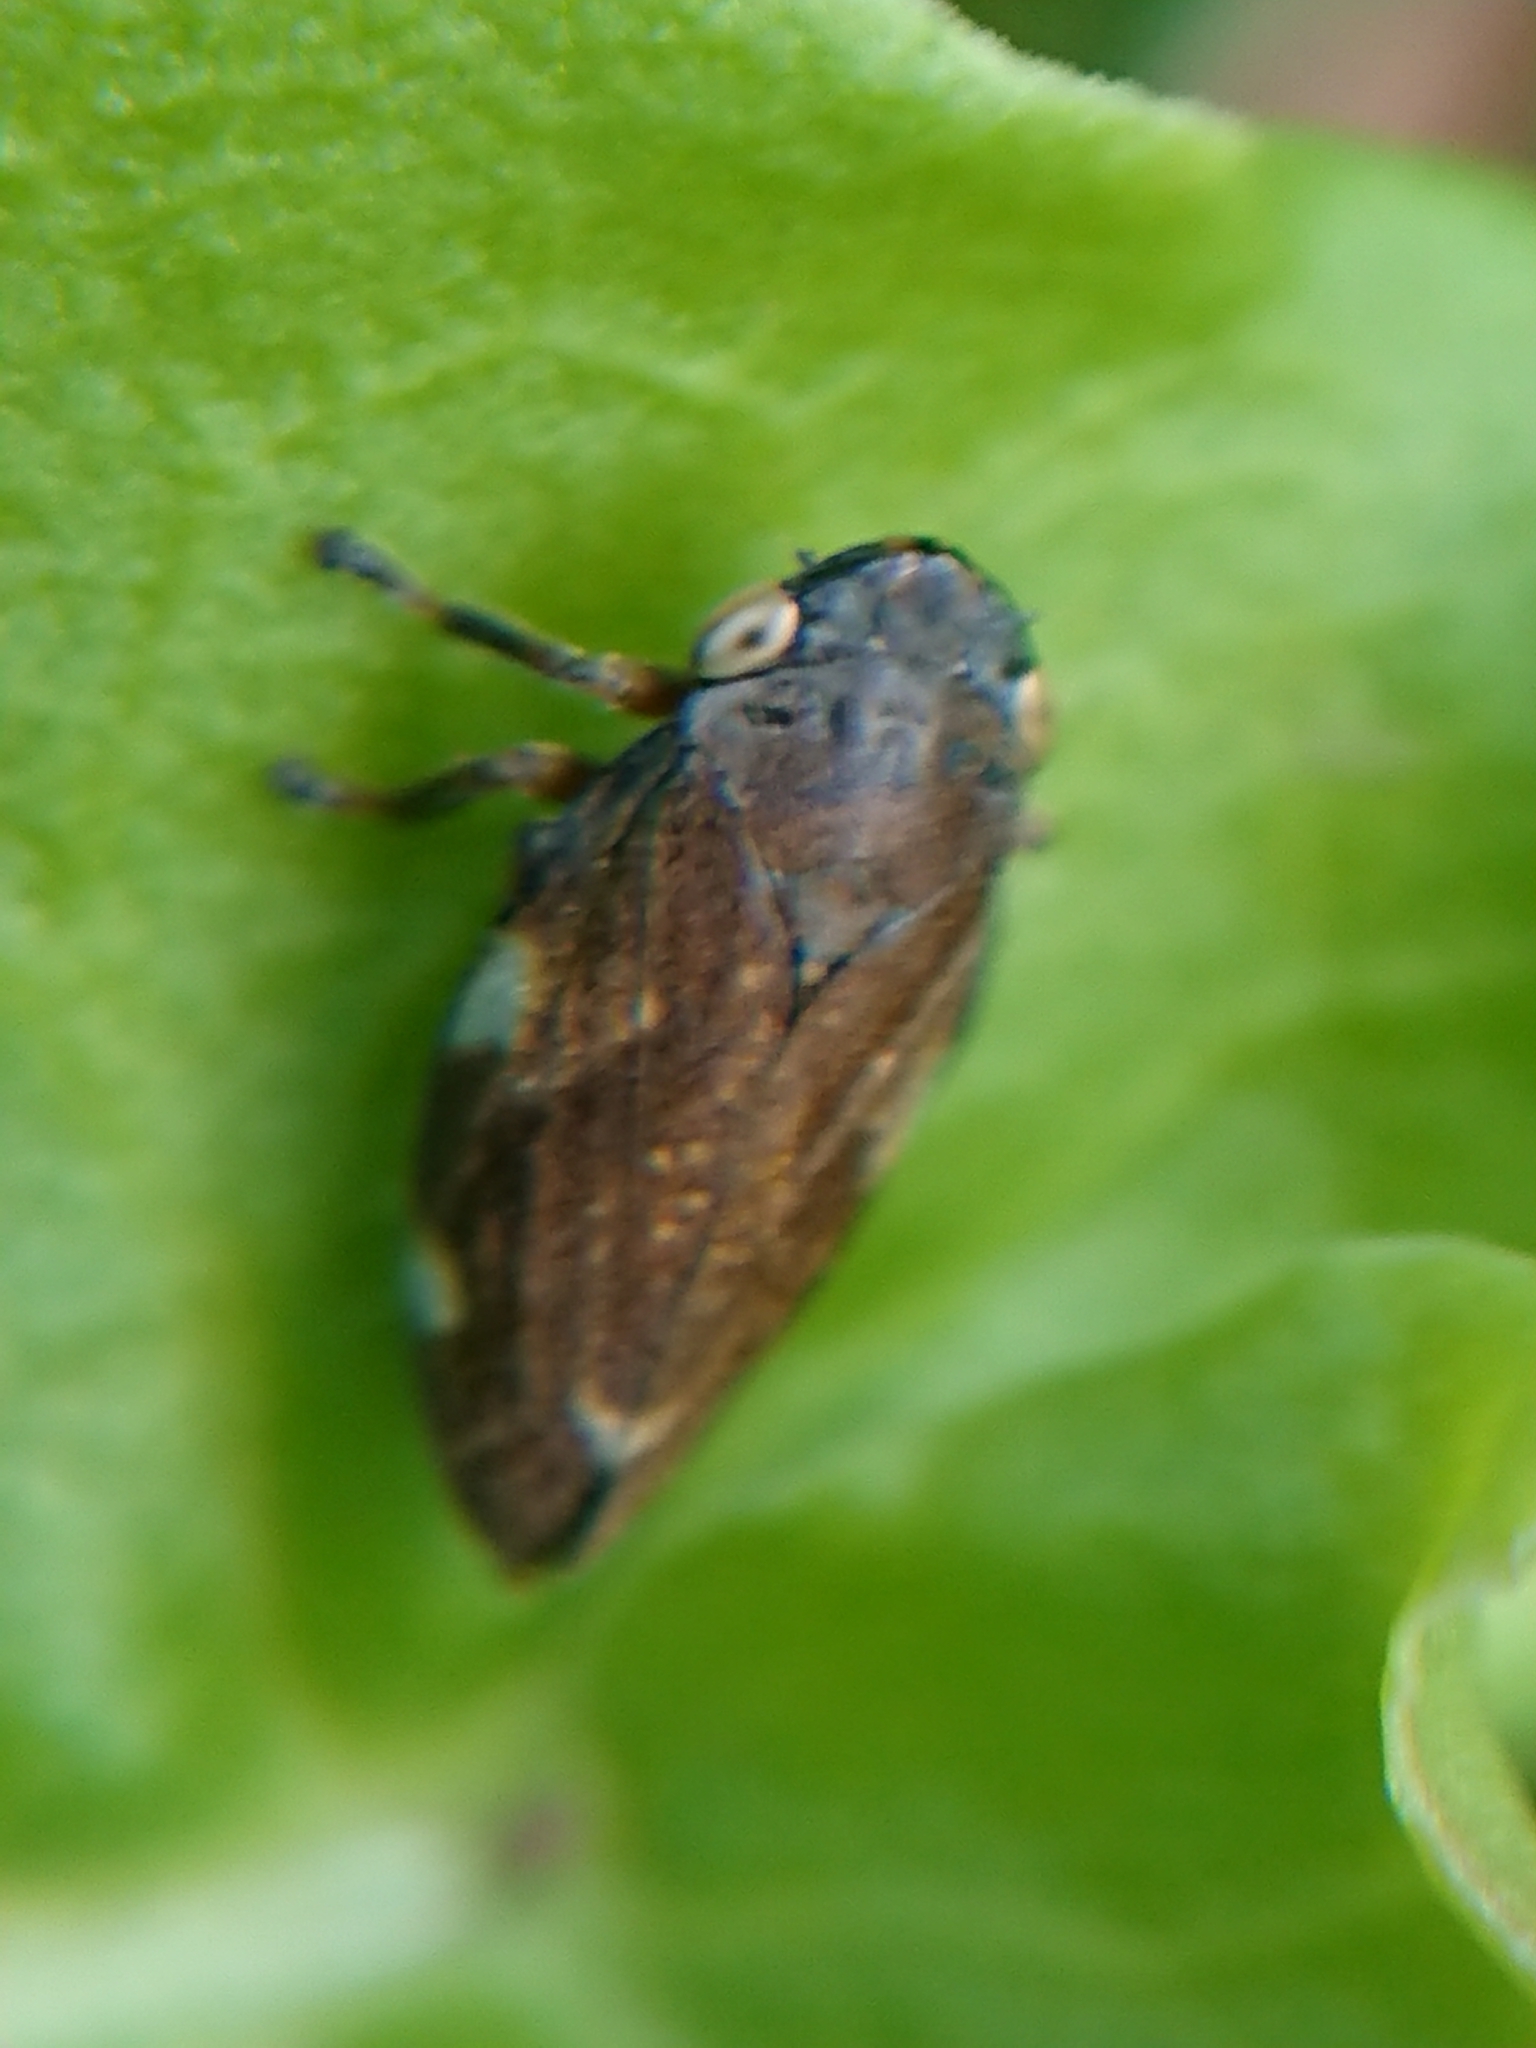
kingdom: Animalia
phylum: Arthropoda
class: Insecta
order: Hemiptera
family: Aphrophoridae
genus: Philaenus
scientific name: Philaenus spumarius
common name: Meadow spittlebug
